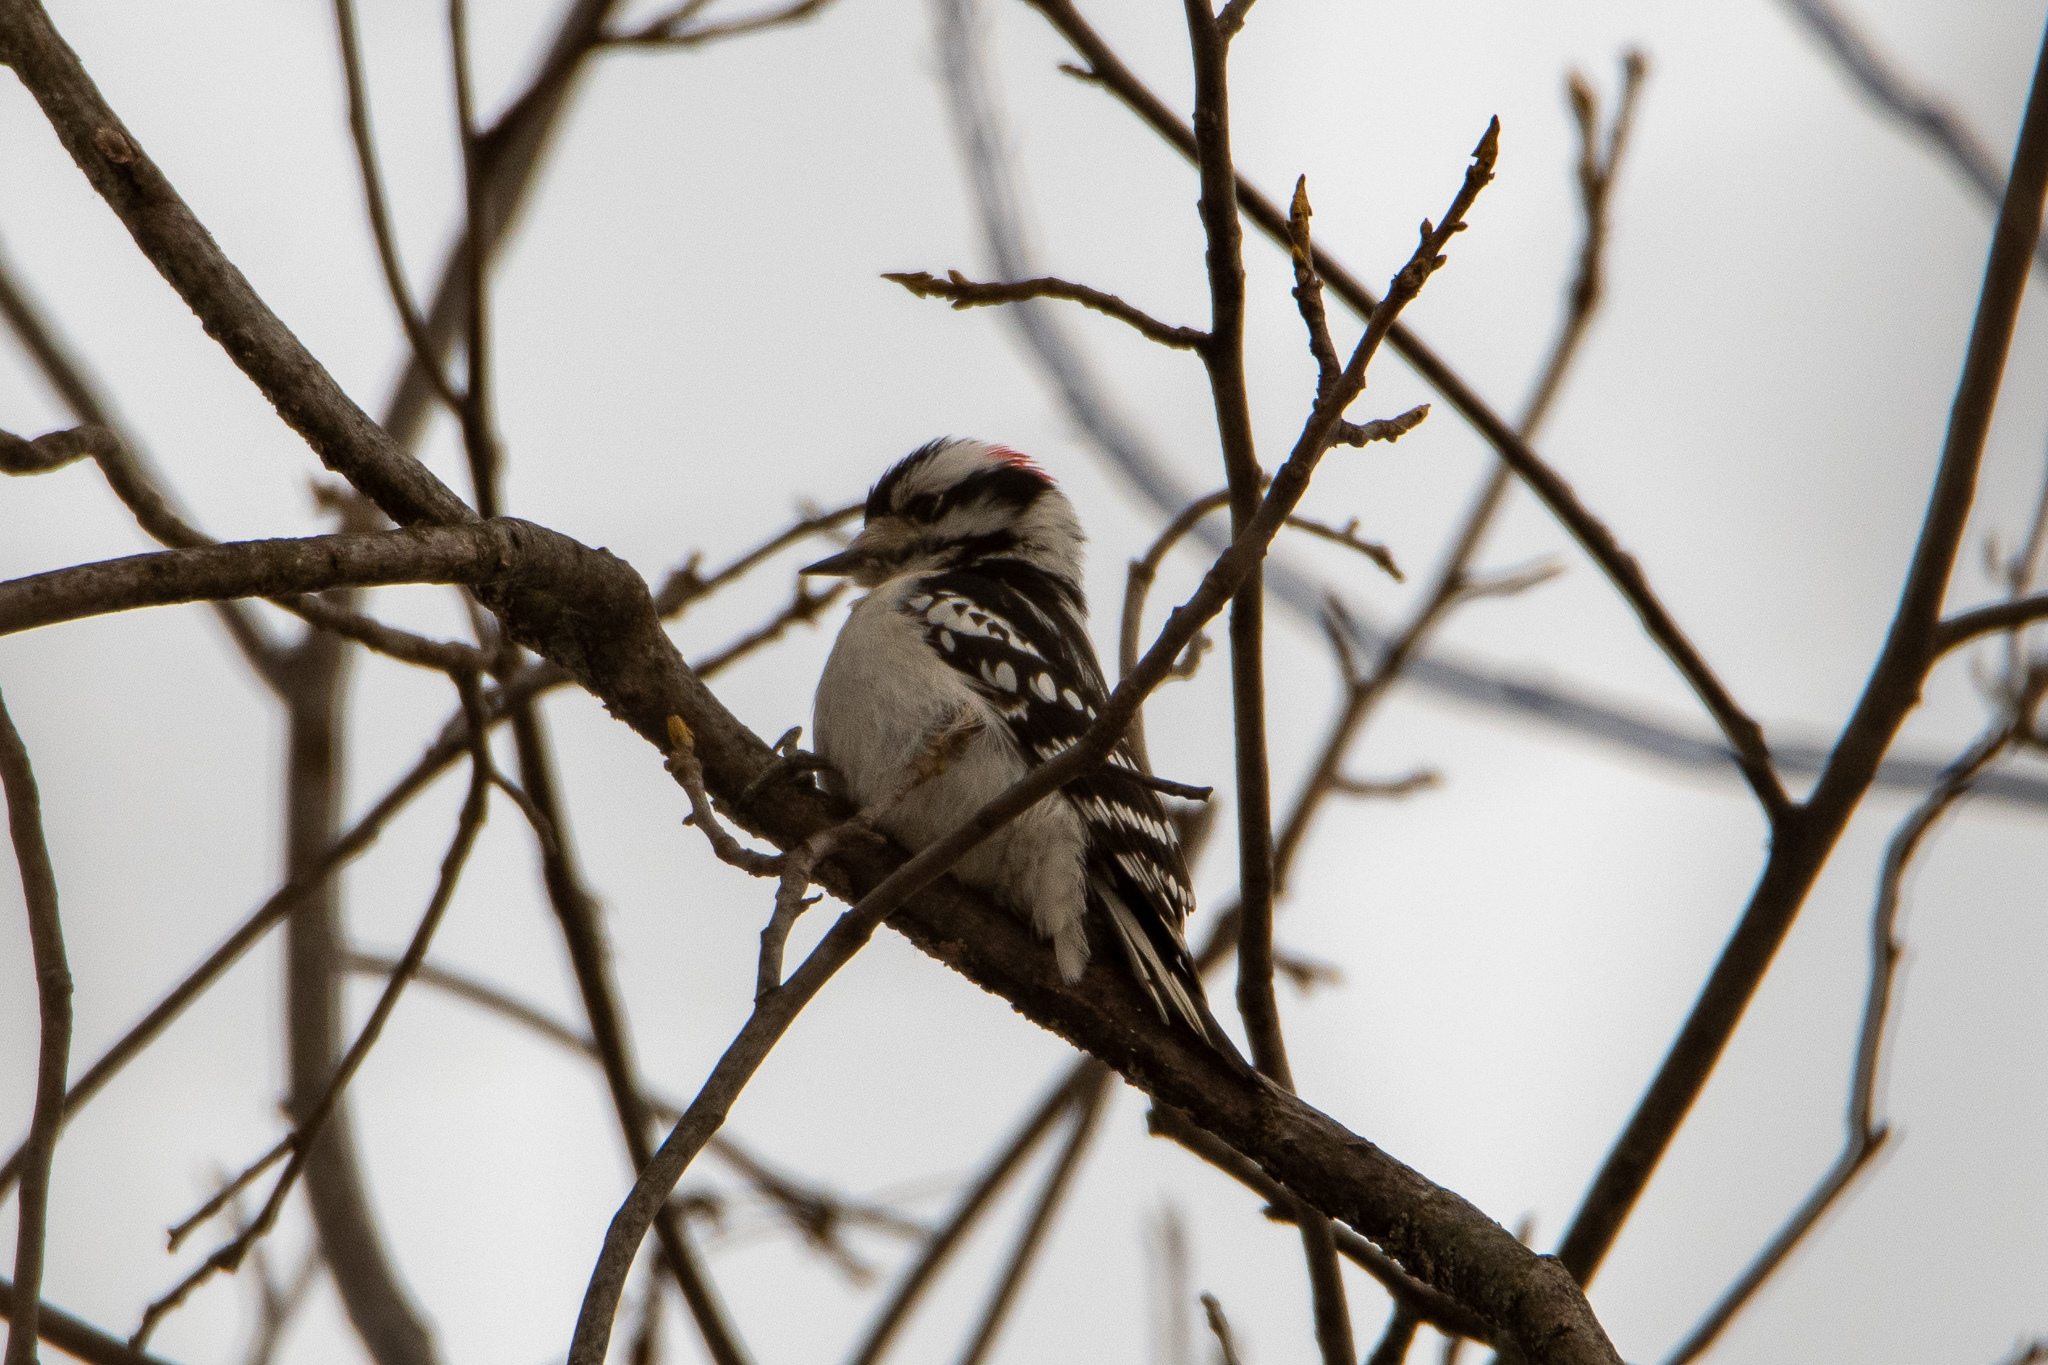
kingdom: Animalia
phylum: Chordata
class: Aves
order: Piciformes
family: Picidae
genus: Dryobates
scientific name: Dryobates pubescens
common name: Downy woodpecker
